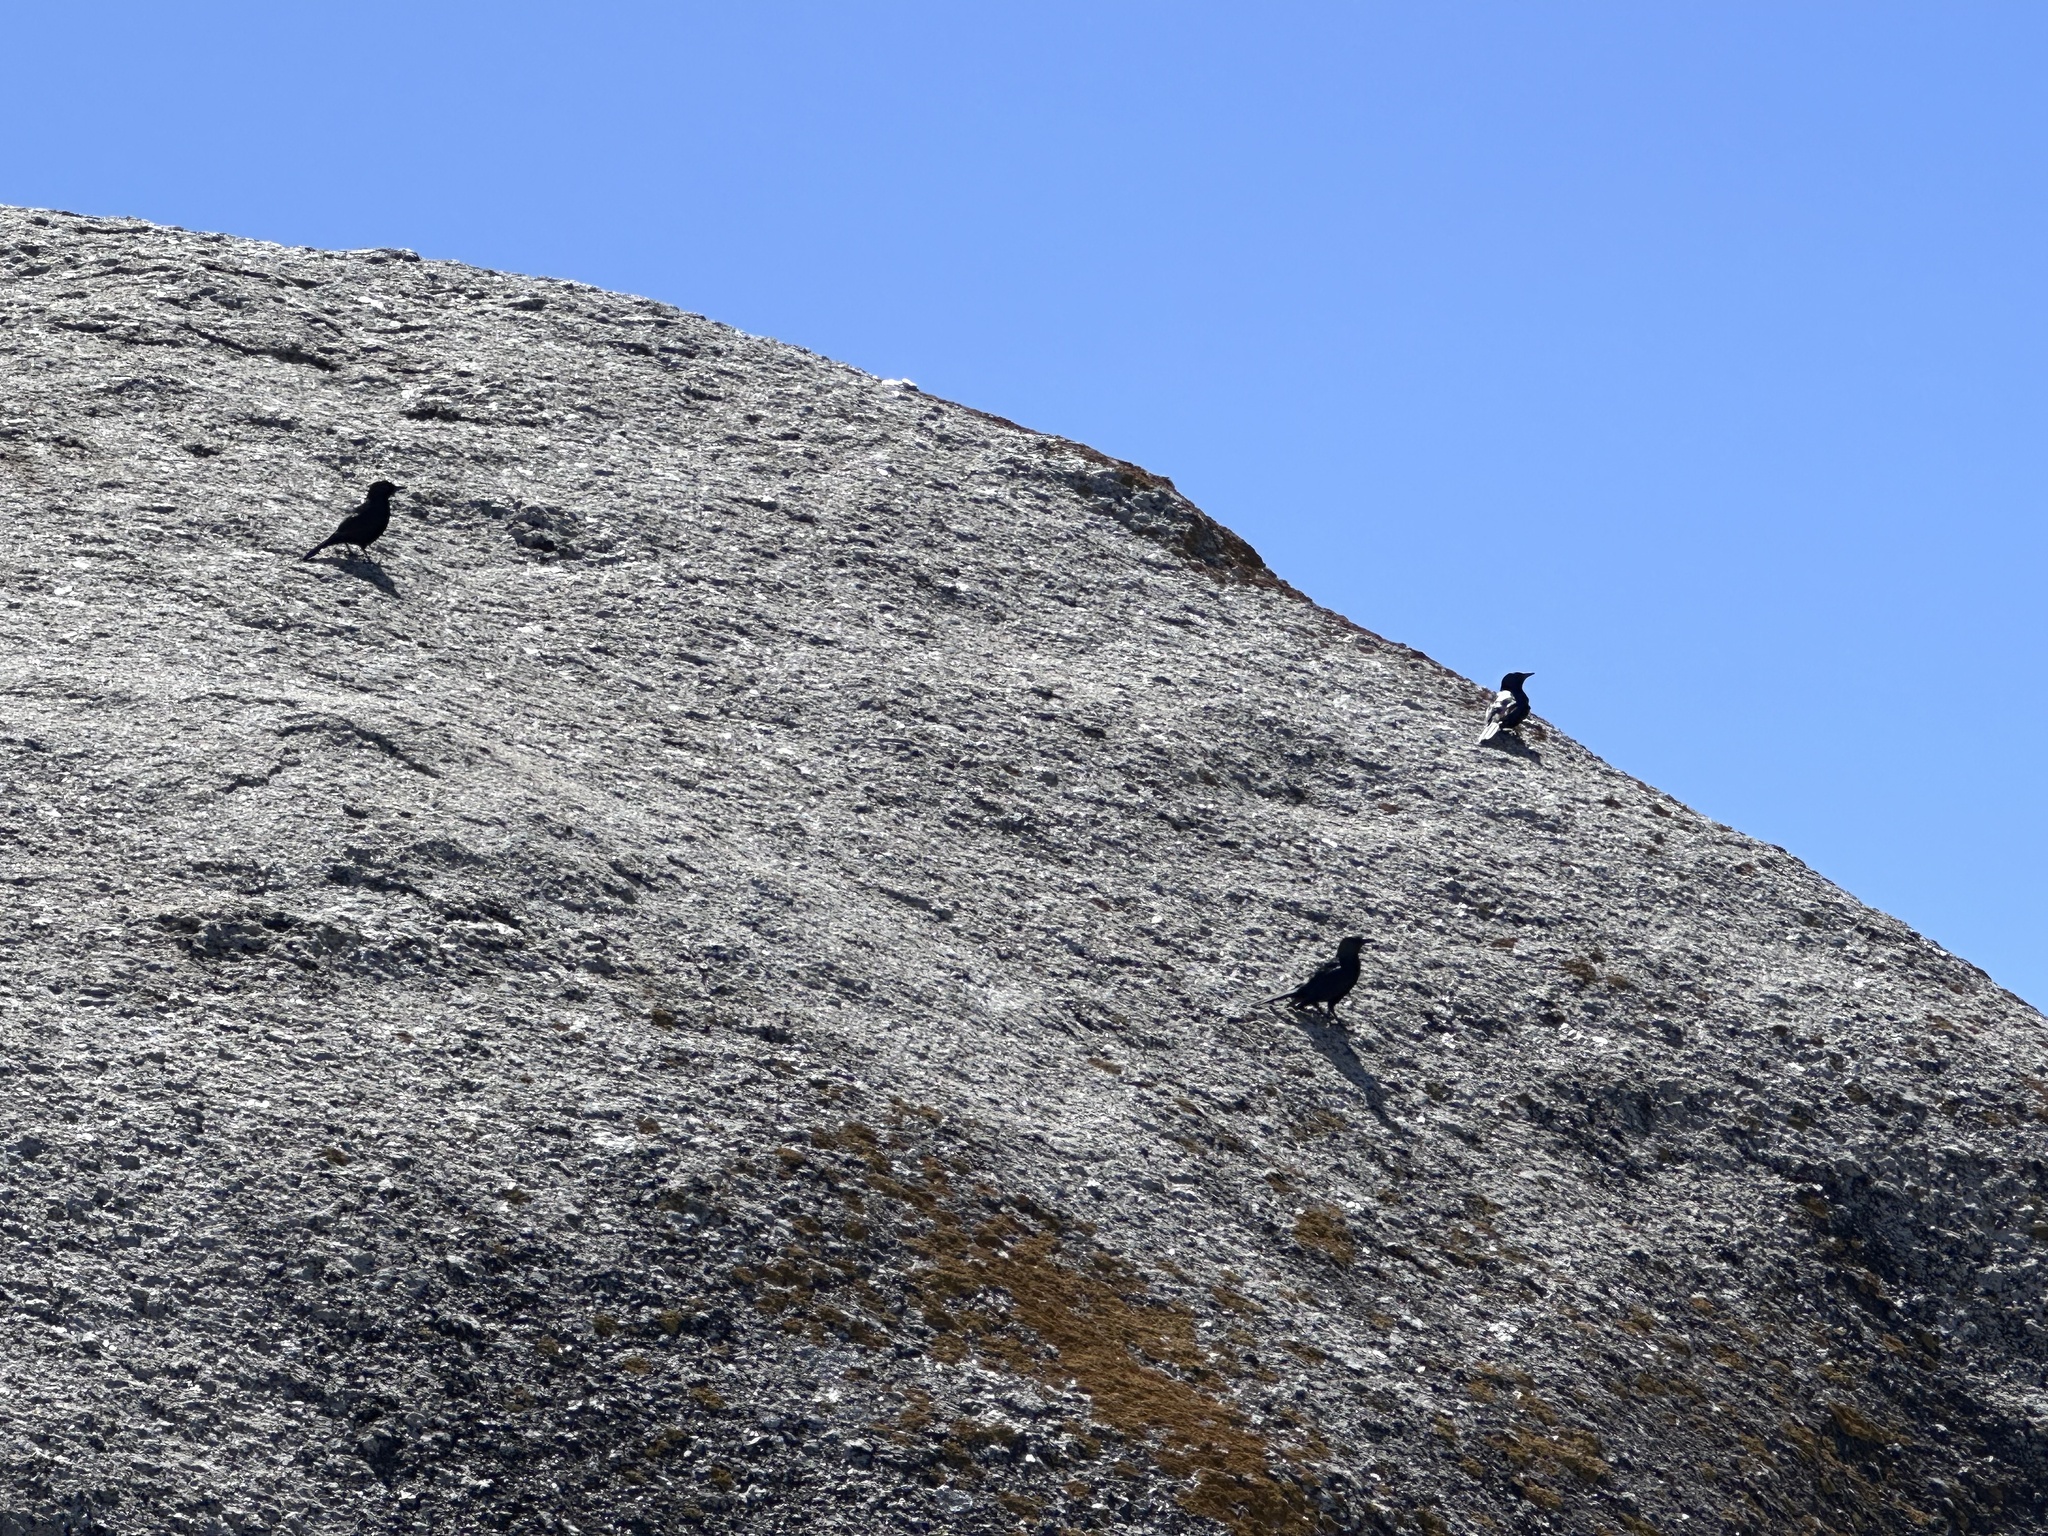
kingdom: Animalia
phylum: Chordata
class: Aves
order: Passeriformes
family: Sturnidae
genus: Onychognathus
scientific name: Onychognathus morio
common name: Red-winged starling
